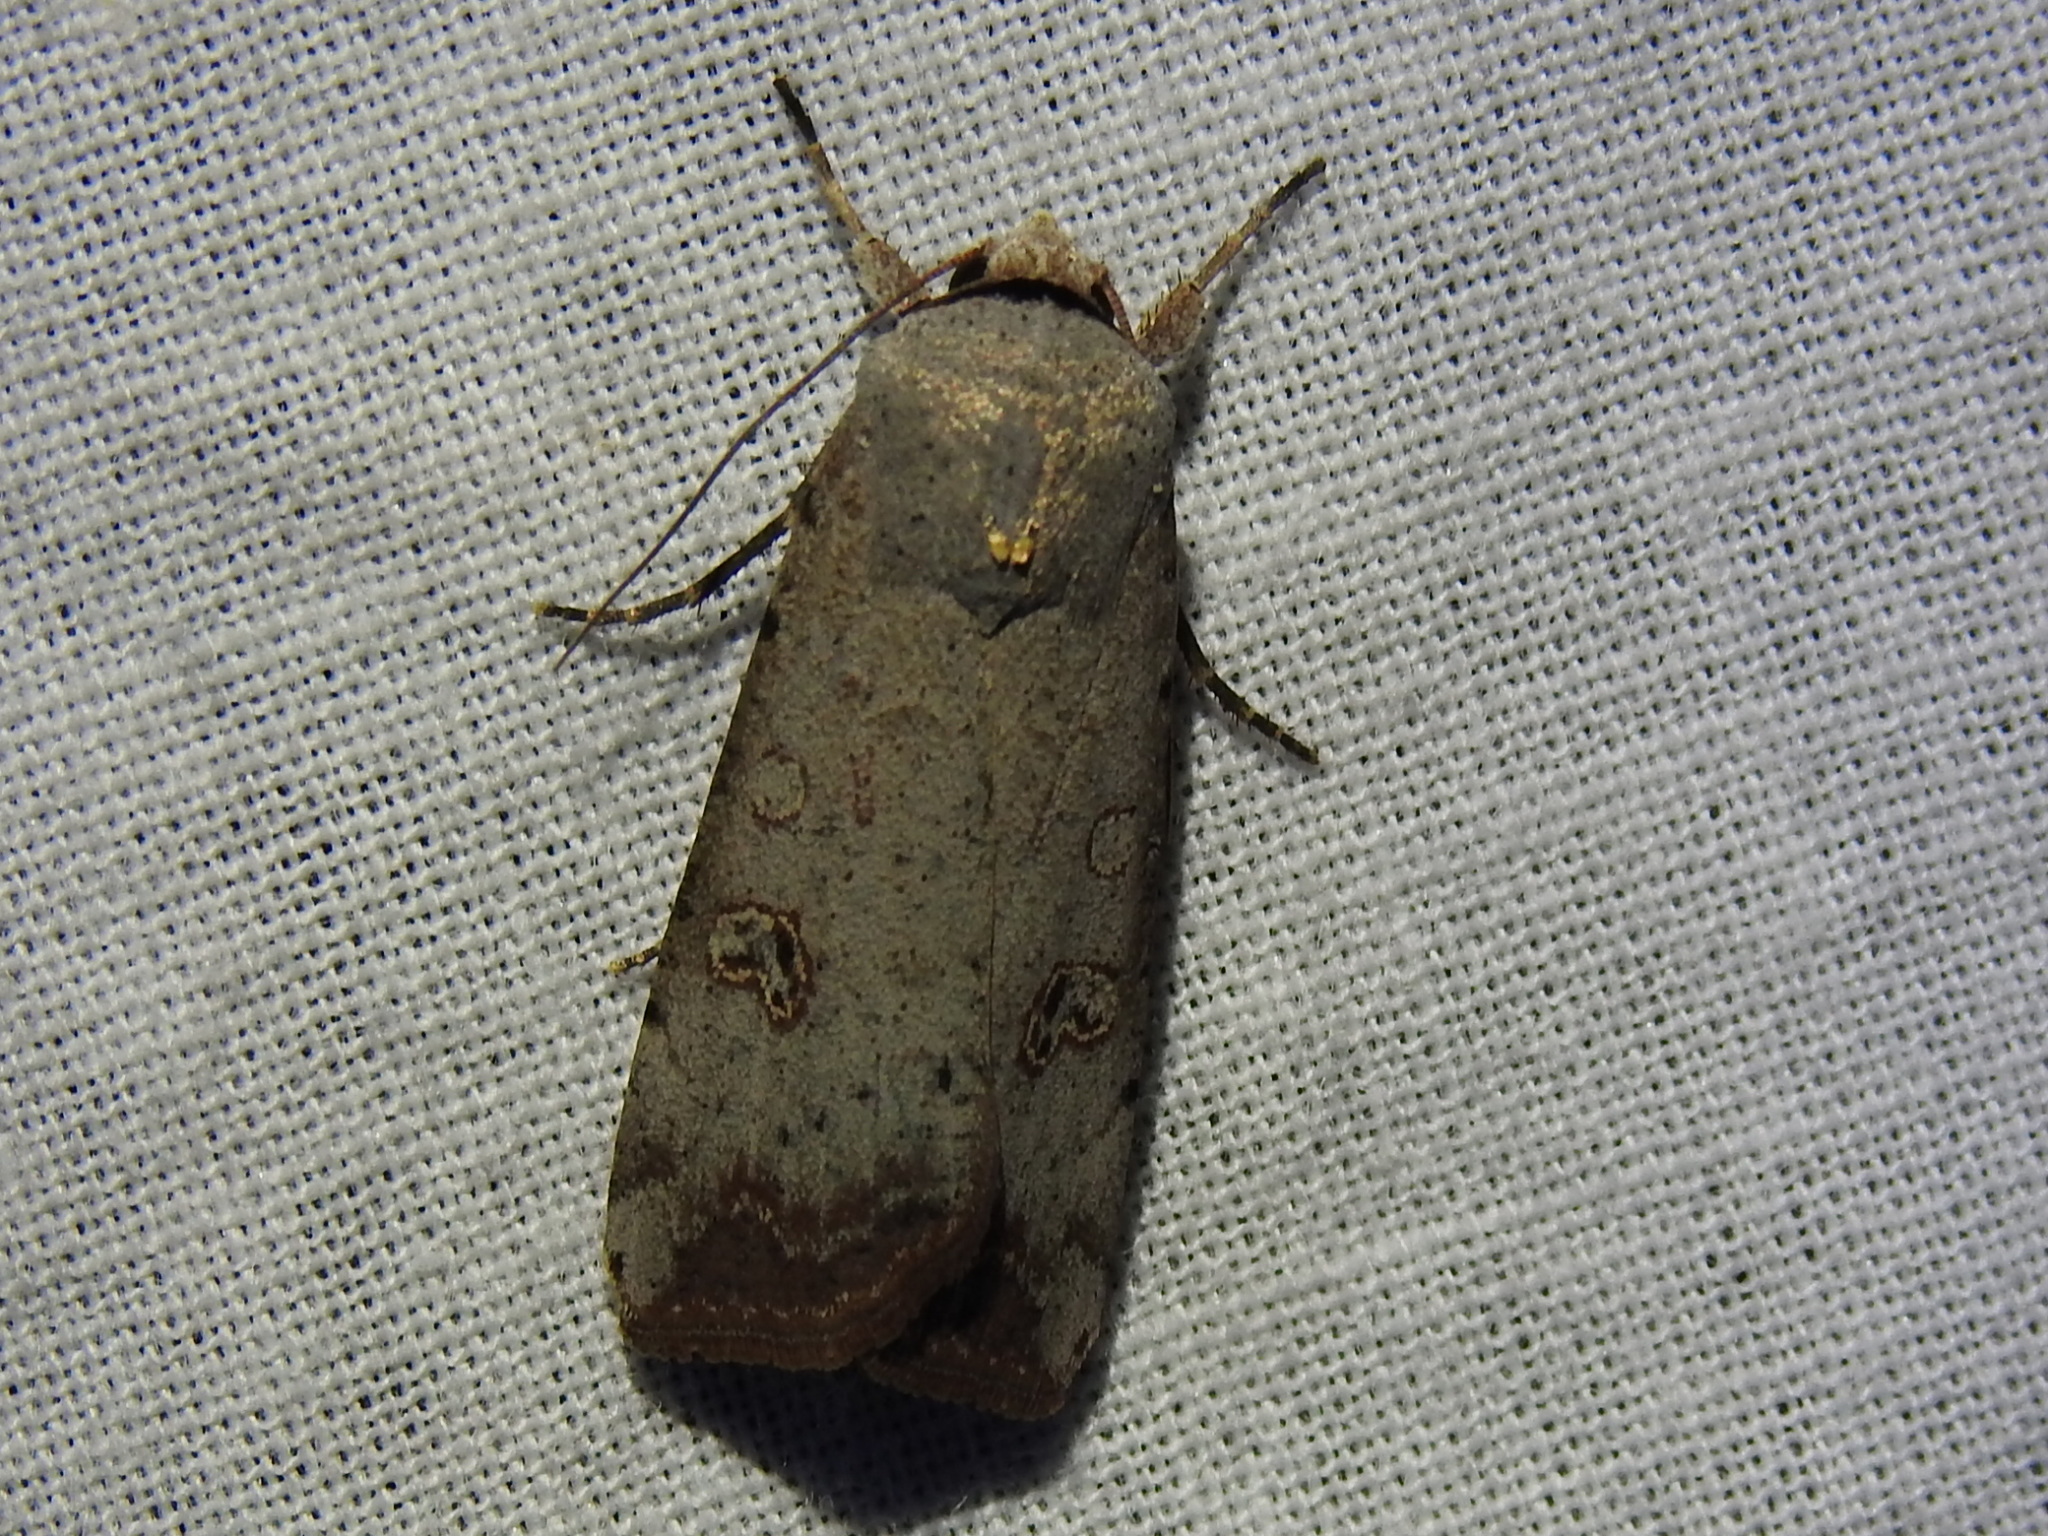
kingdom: Animalia
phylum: Arthropoda
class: Insecta
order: Lepidoptera
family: Noctuidae
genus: Anicla
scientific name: Anicla infecta
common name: Green cutworm
